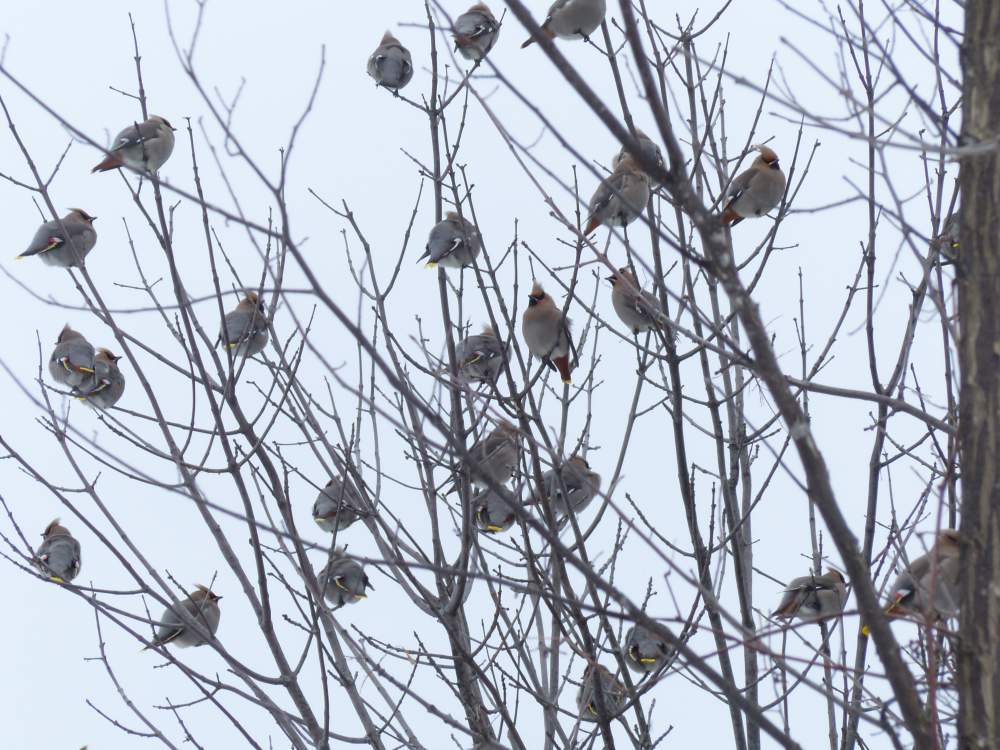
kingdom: Animalia
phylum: Chordata
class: Aves
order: Passeriformes
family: Bombycillidae
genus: Bombycilla
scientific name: Bombycilla garrulus
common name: Bohemian waxwing
